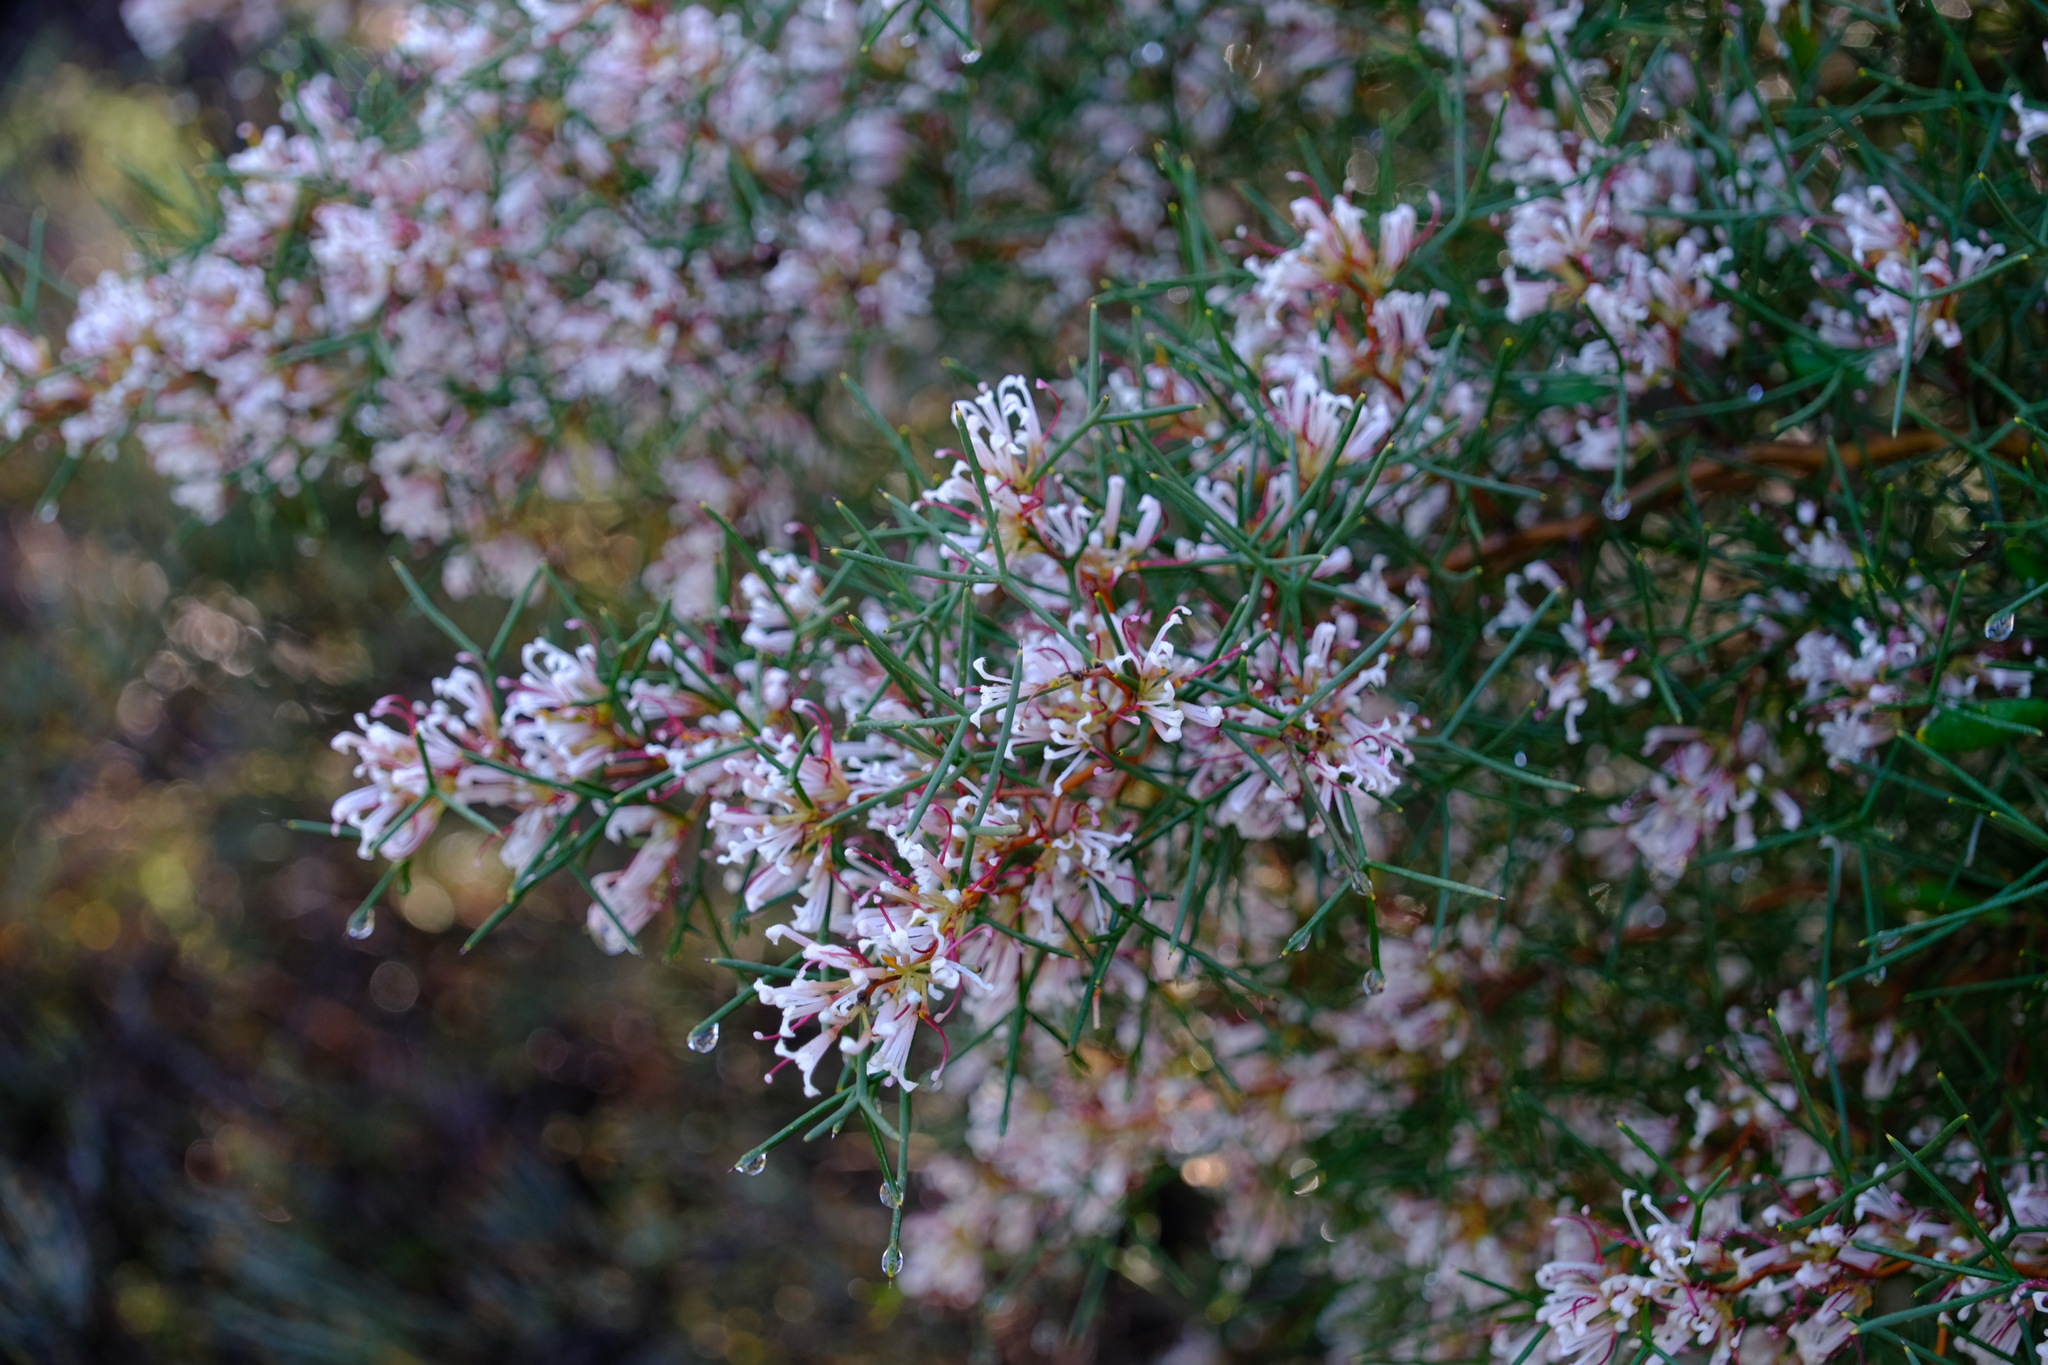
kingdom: Plantae
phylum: Tracheophyta
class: Magnoliopsida
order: Proteales
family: Proteaceae
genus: Hakea
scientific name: Hakea trifurcata
